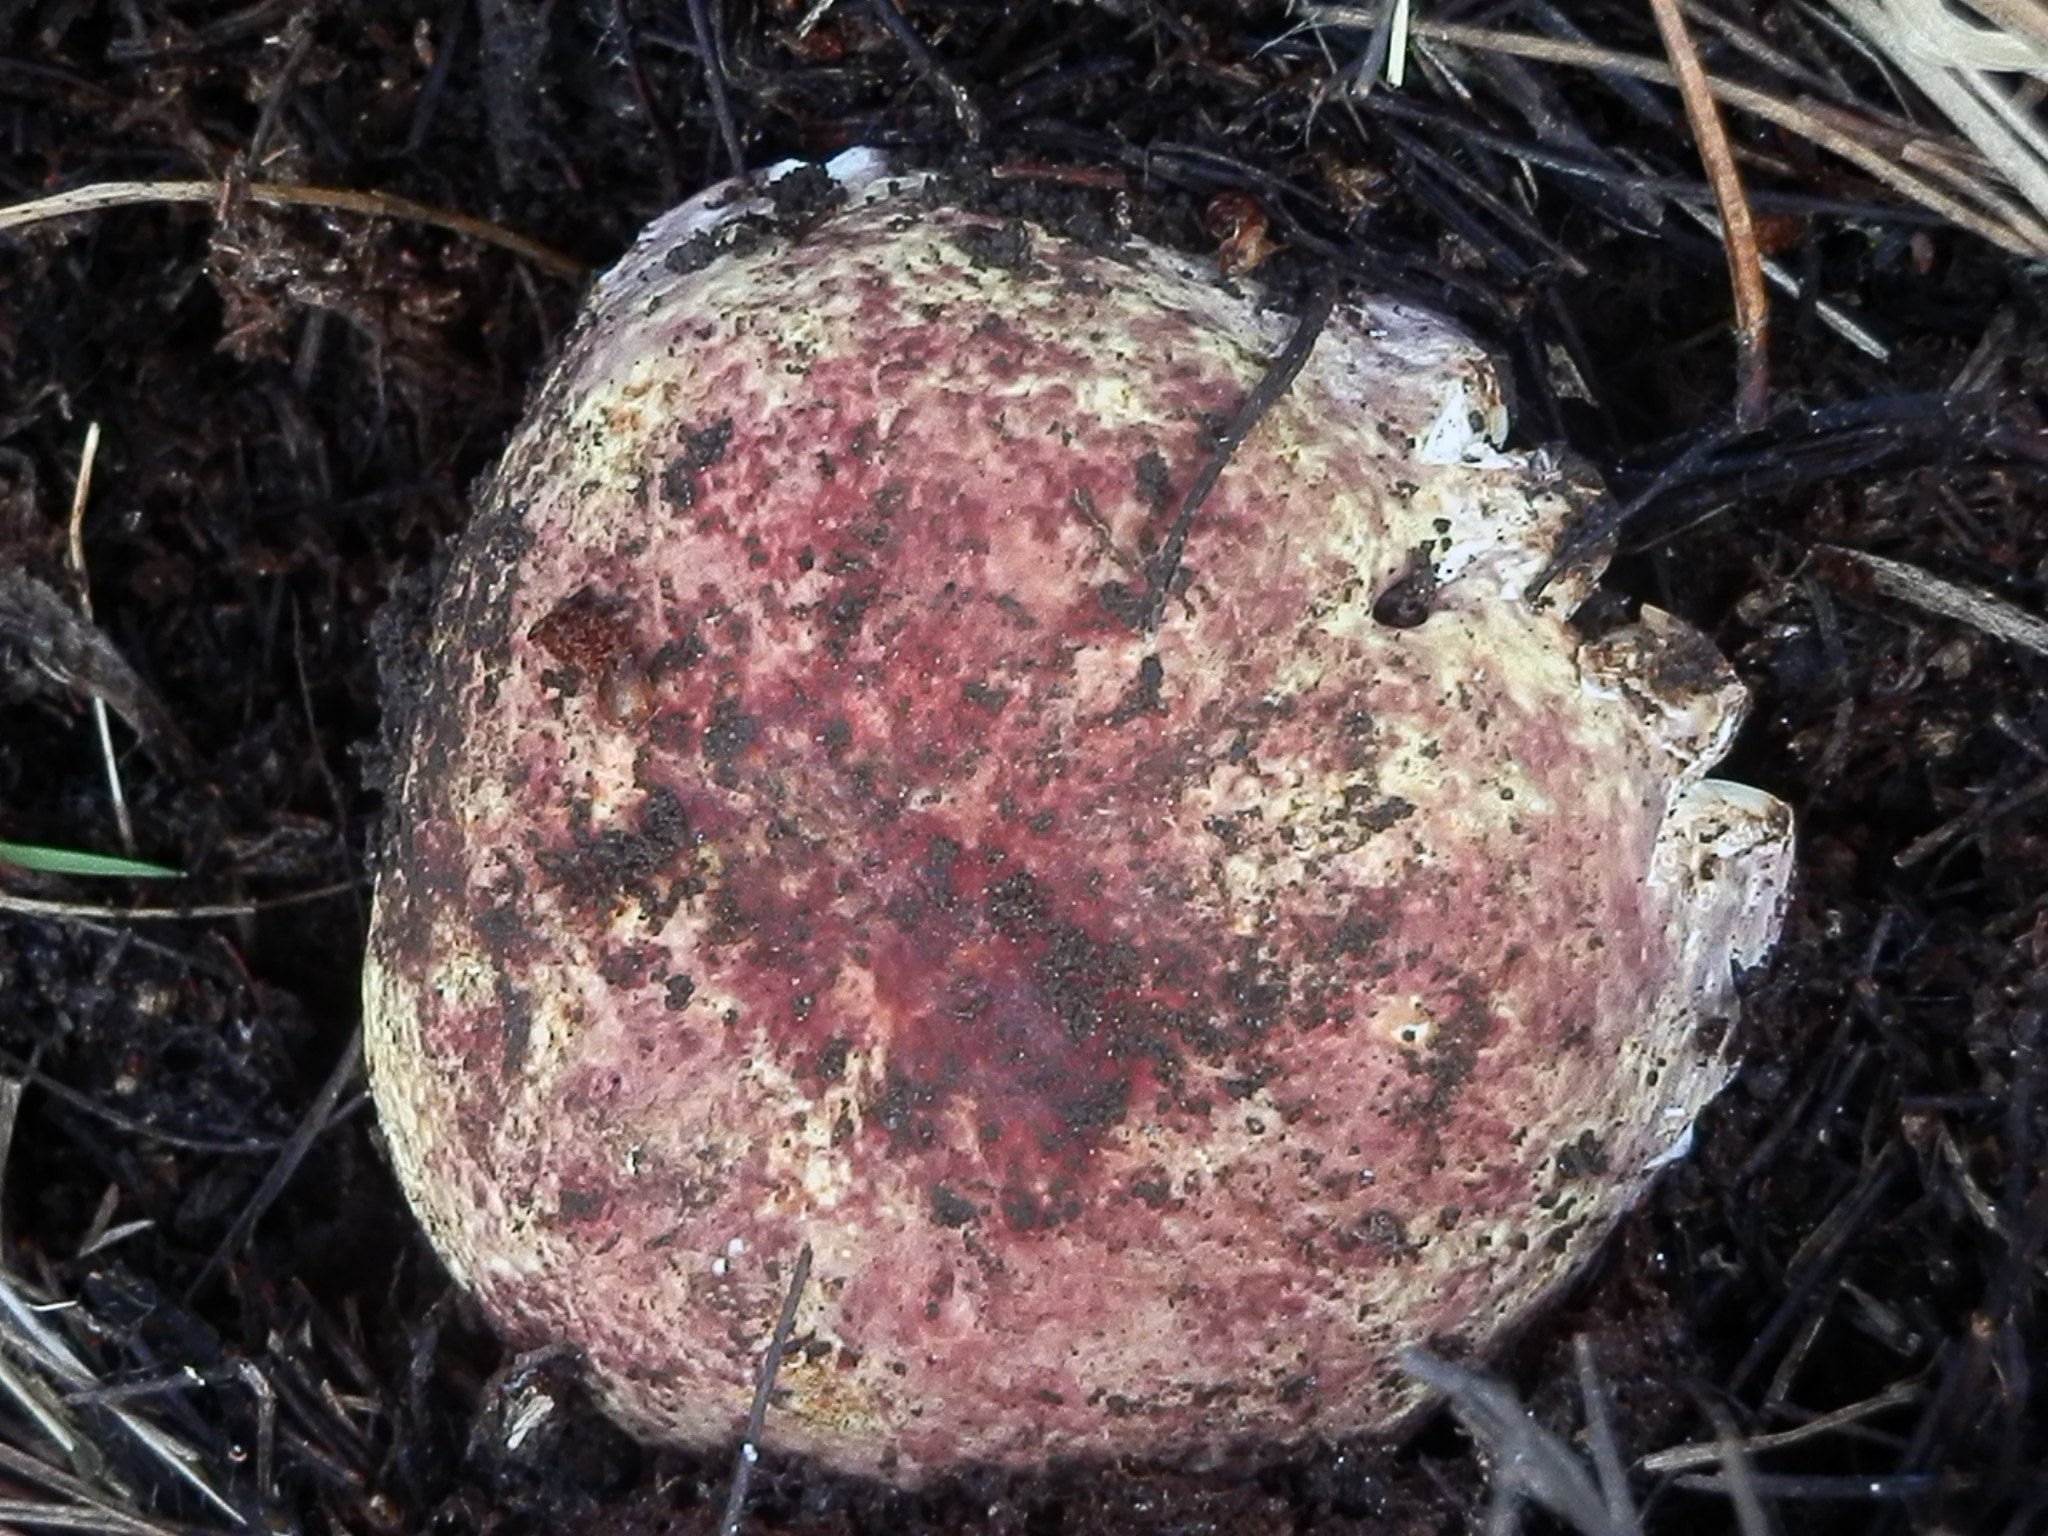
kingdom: Fungi
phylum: Basidiomycota
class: Agaricomycetes
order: Russulales
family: Russulaceae
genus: Russula
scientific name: Russula mustelina
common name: Russet brittlegill
